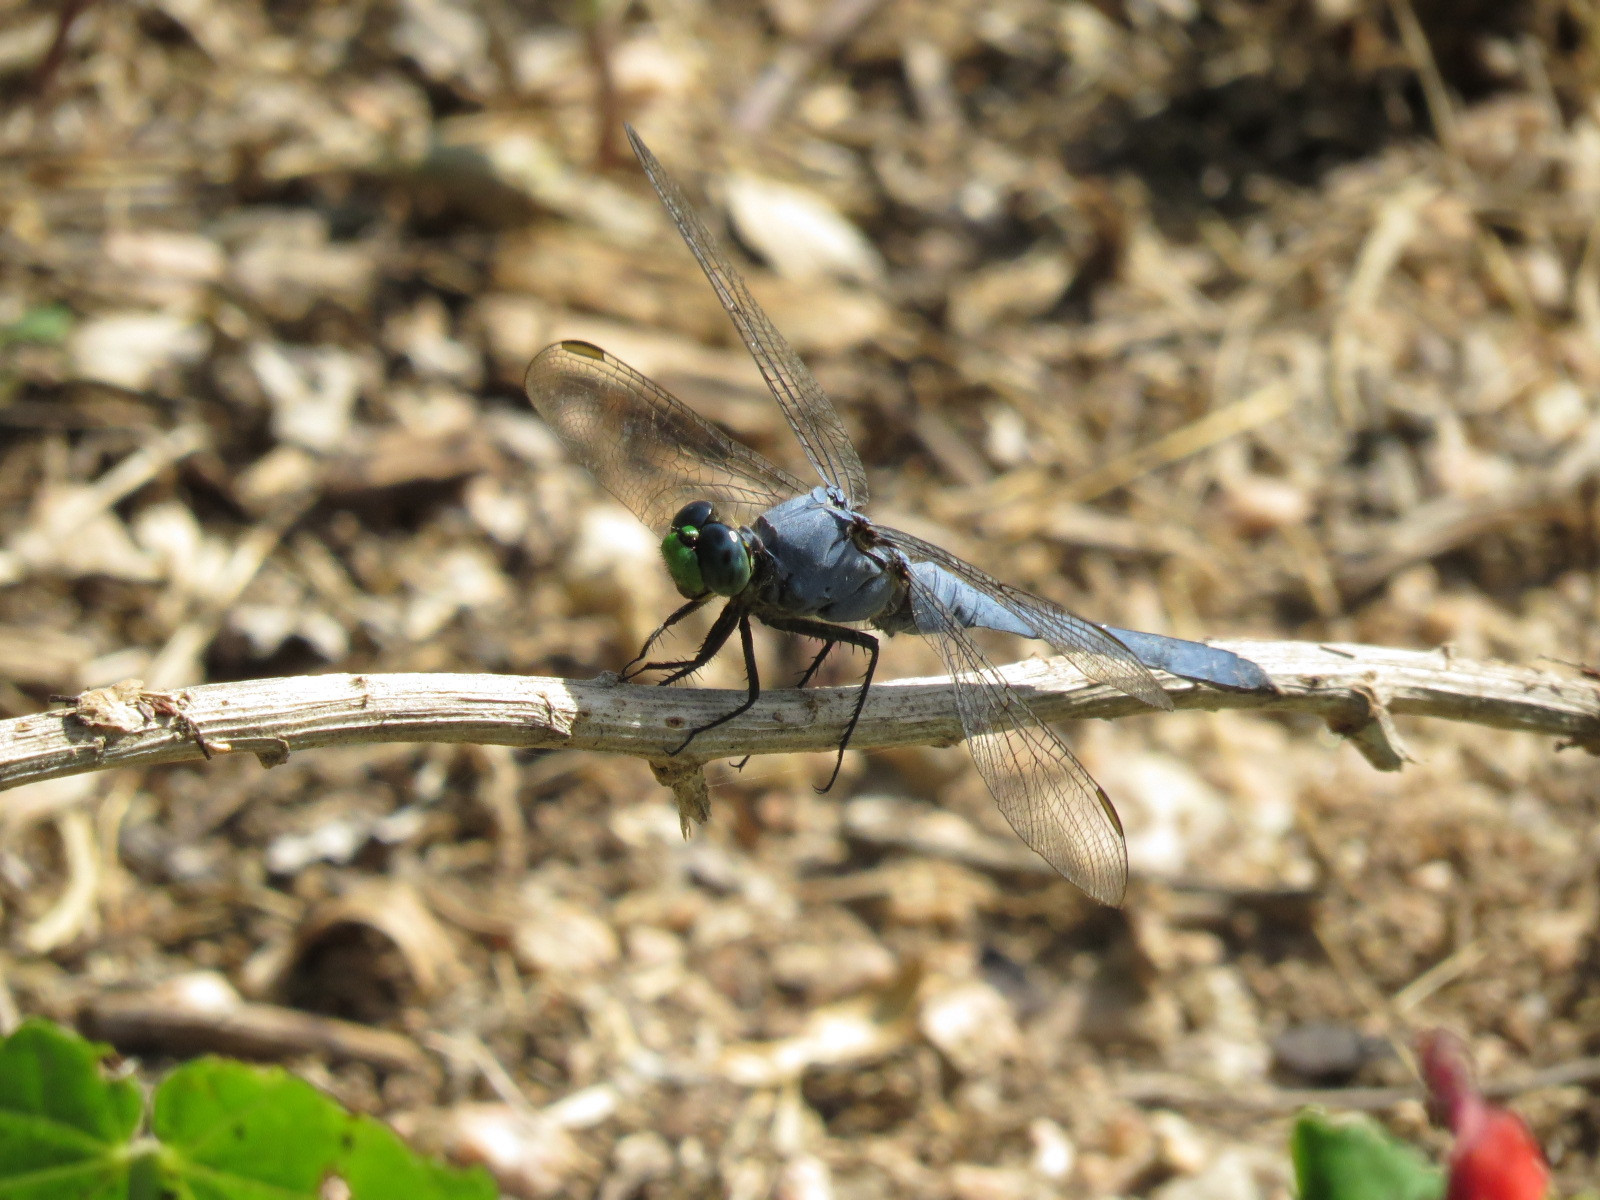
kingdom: Animalia
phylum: Arthropoda
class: Insecta
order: Odonata
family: Libellulidae
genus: Erythemis
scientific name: Erythemis simplicicollis
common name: Eastern pondhawk
